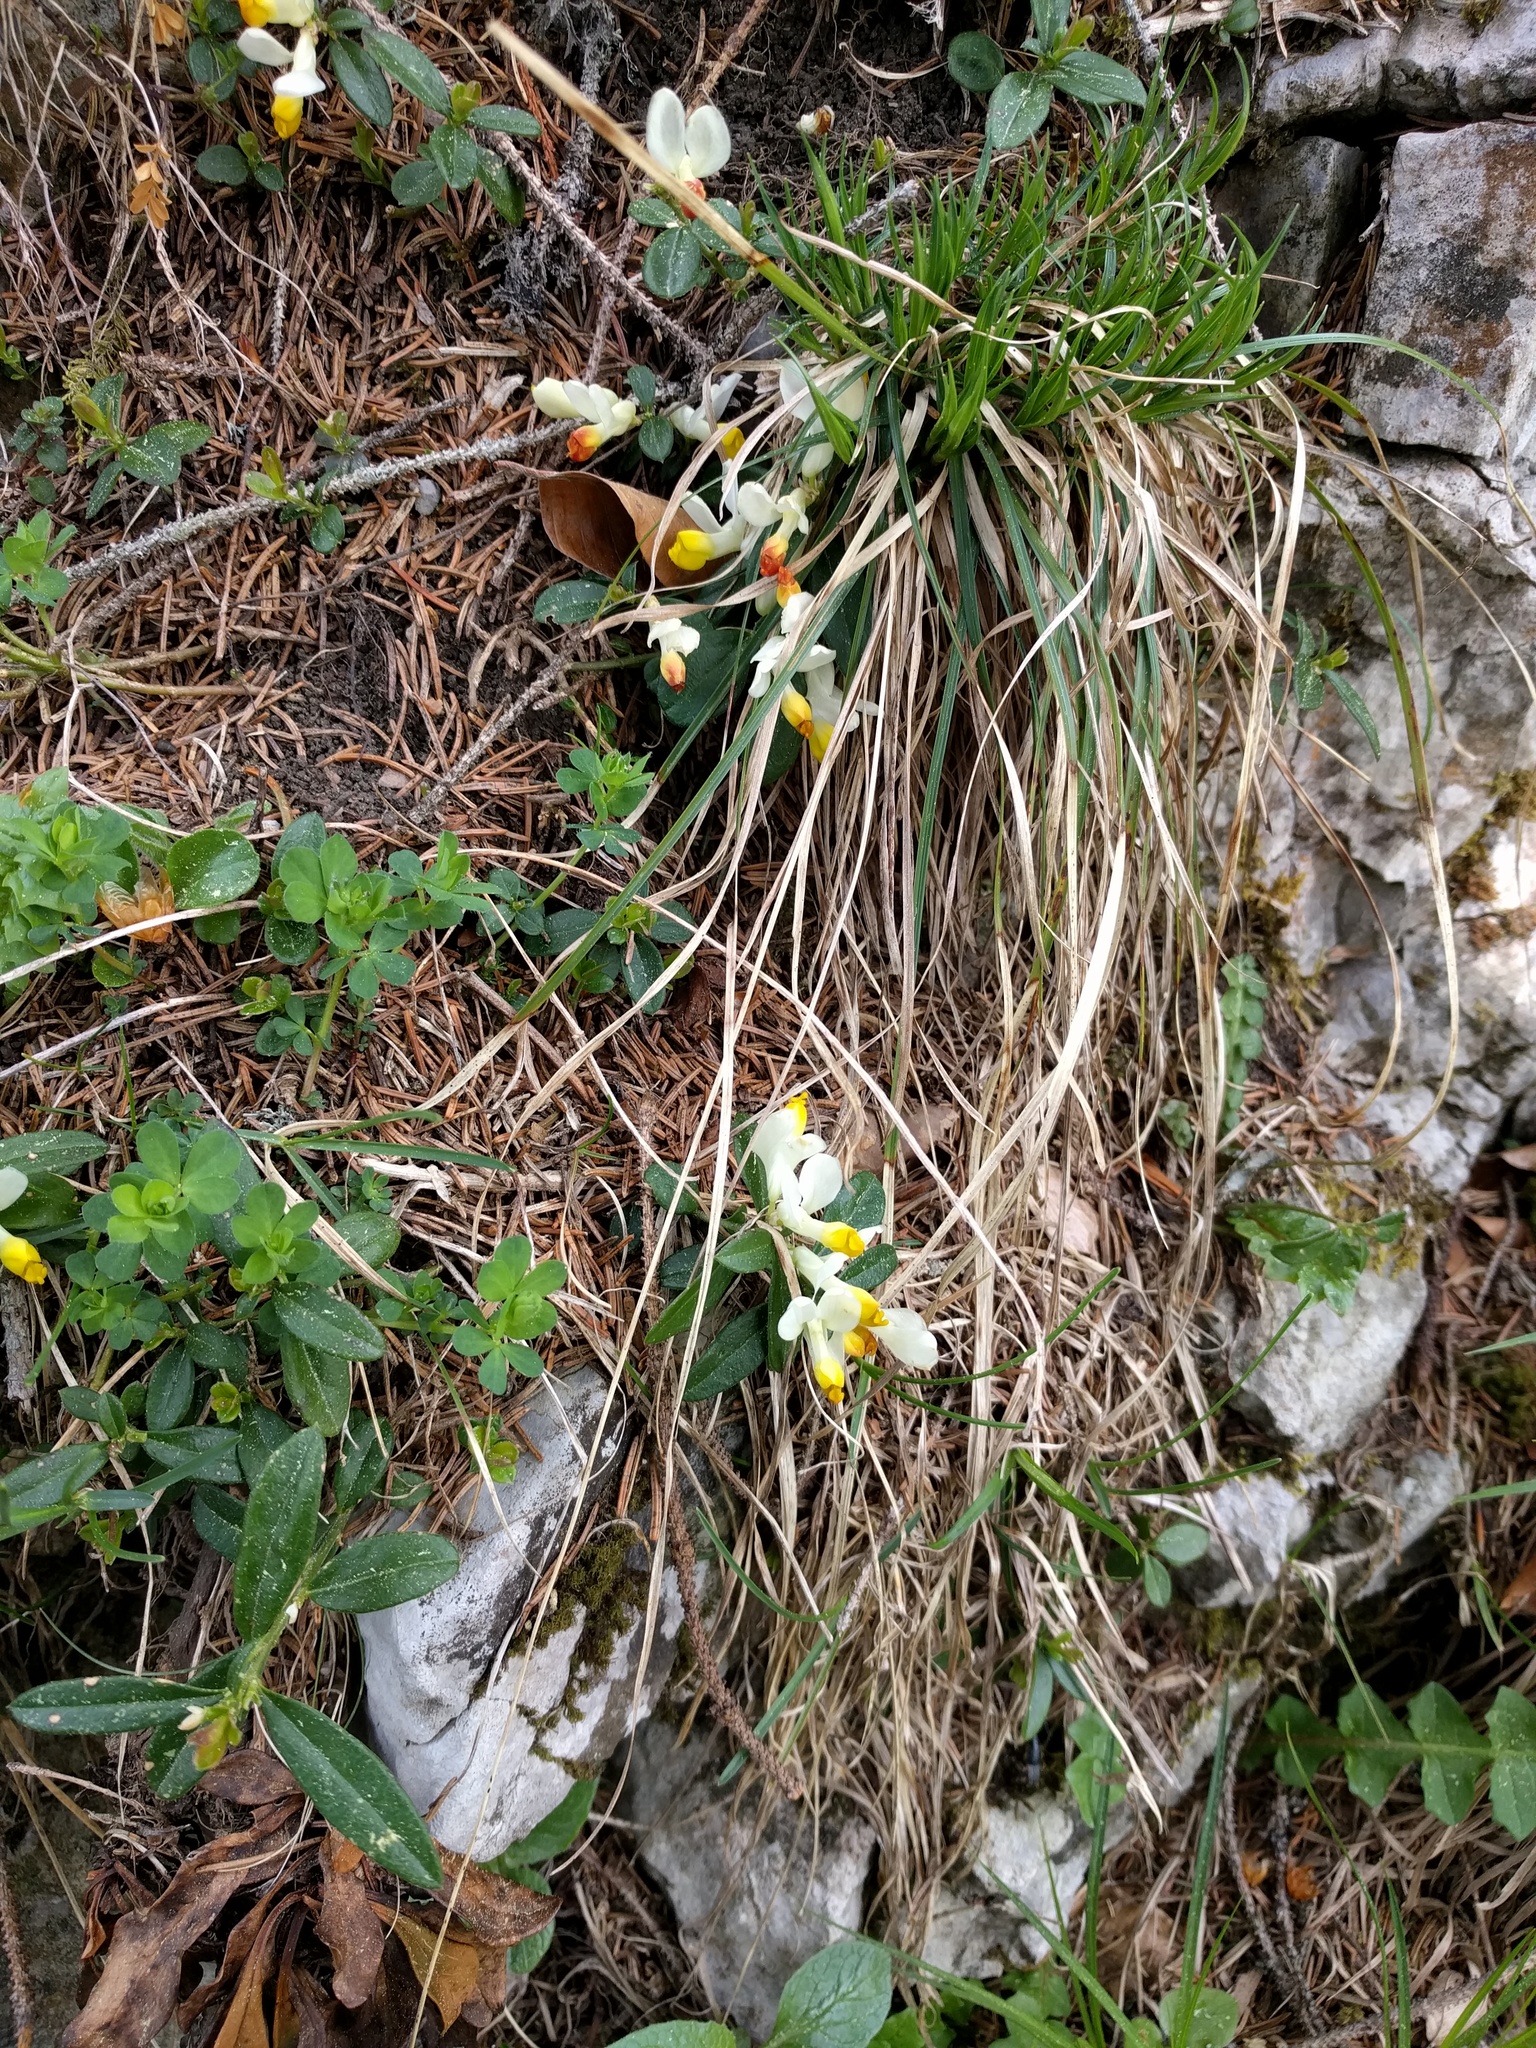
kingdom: Plantae
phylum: Tracheophyta
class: Magnoliopsida
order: Fabales
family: Polygalaceae
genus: Polygaloides
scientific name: Polygaloides chamaebuxus
